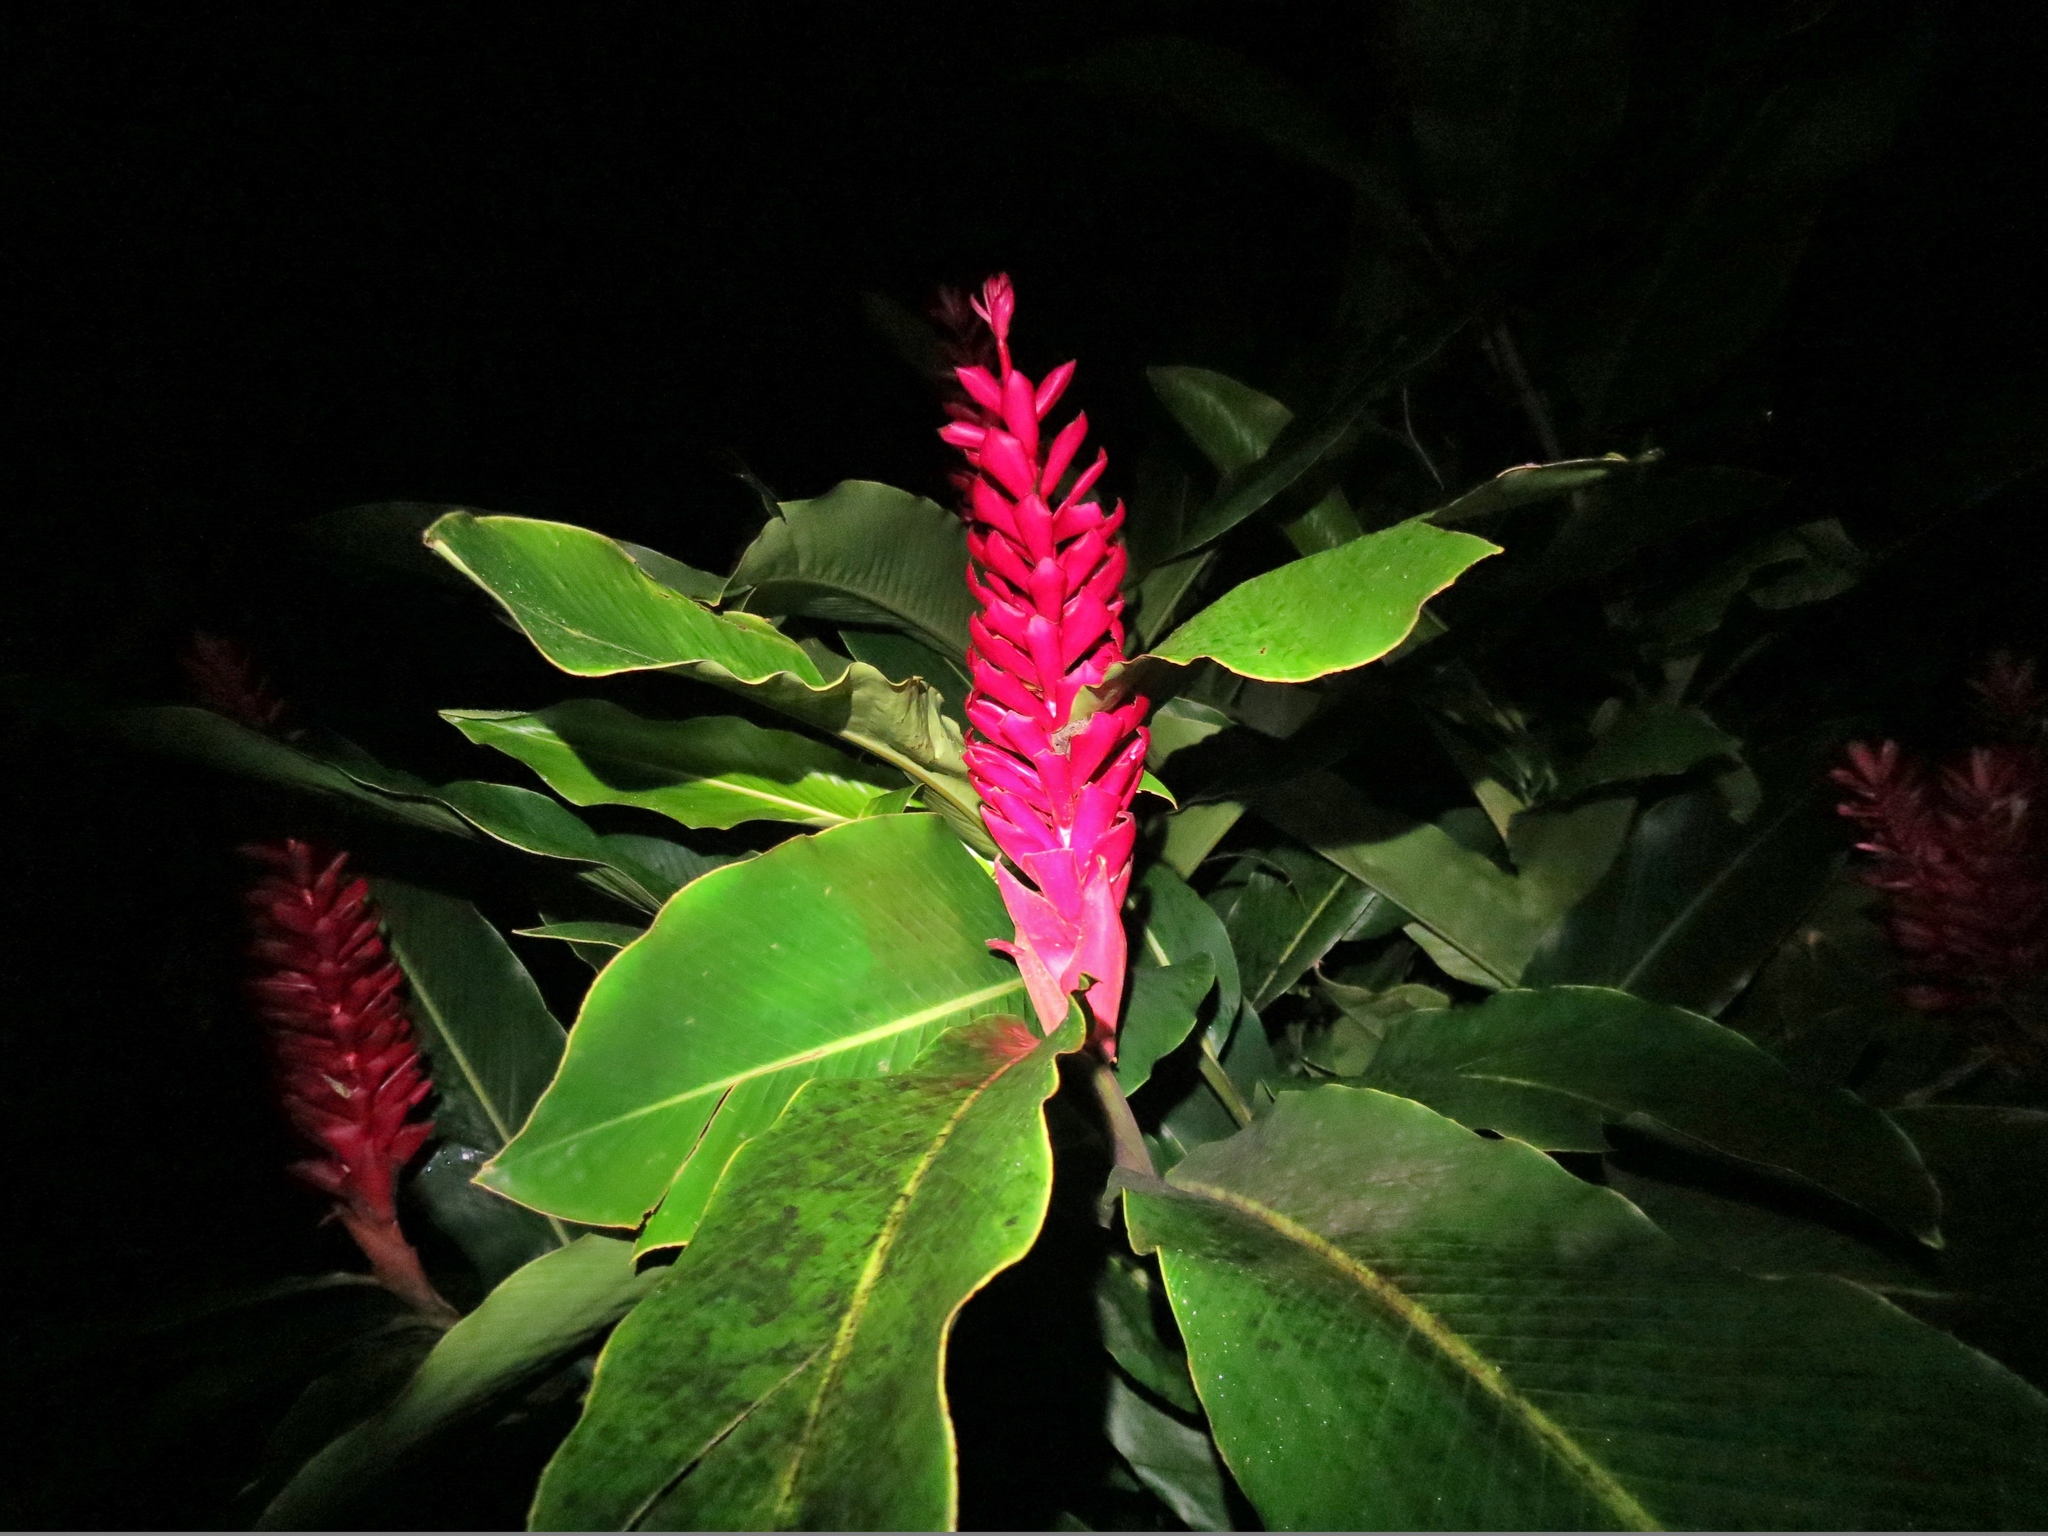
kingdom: Plantae
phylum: Tracheophyta
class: Liliopsida
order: Zingiberales
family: Zingiberaceae
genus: Alpinia
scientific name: Alpinia purpurata
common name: Red ginger
